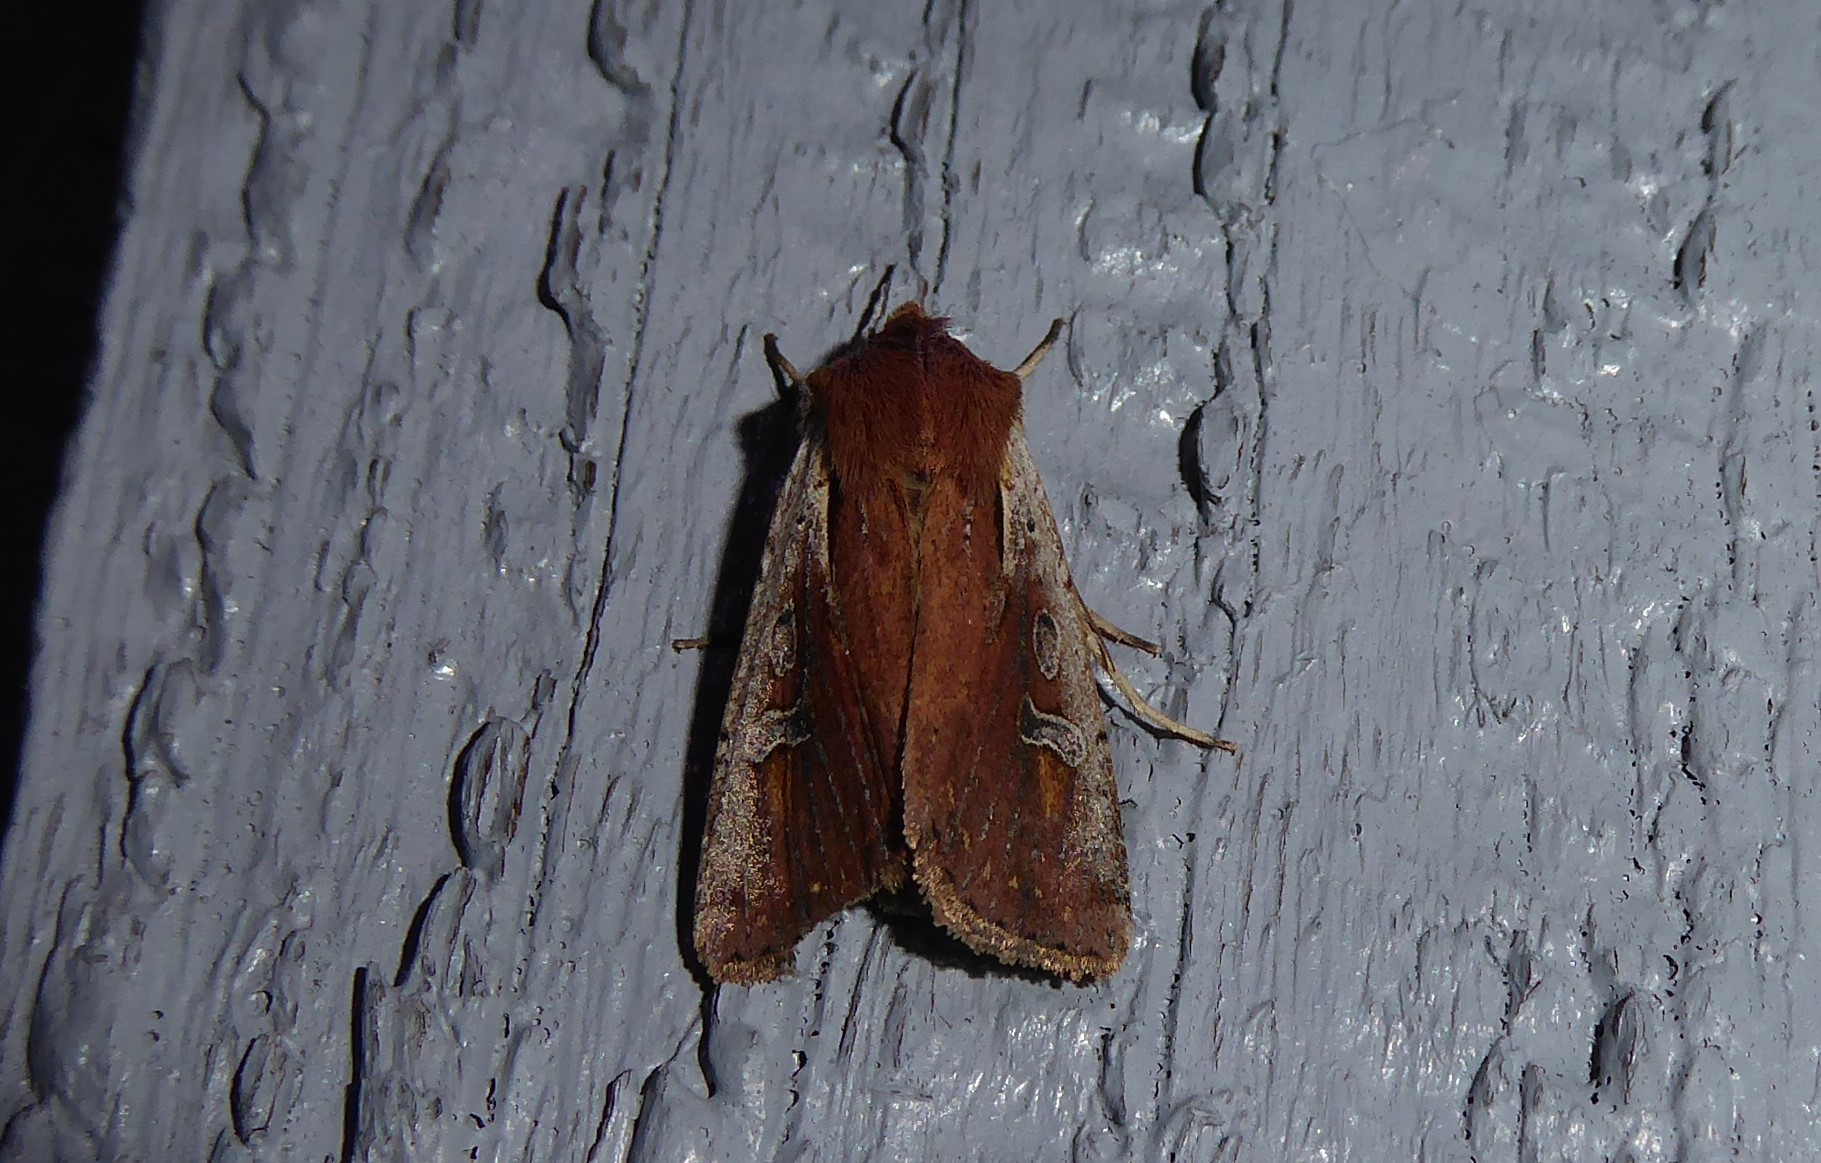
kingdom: Animalia
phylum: Arthropoda
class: Insecta
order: Lepidoptera
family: Noctuidae
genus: Ichneutica
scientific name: Ichneutica atristriga
